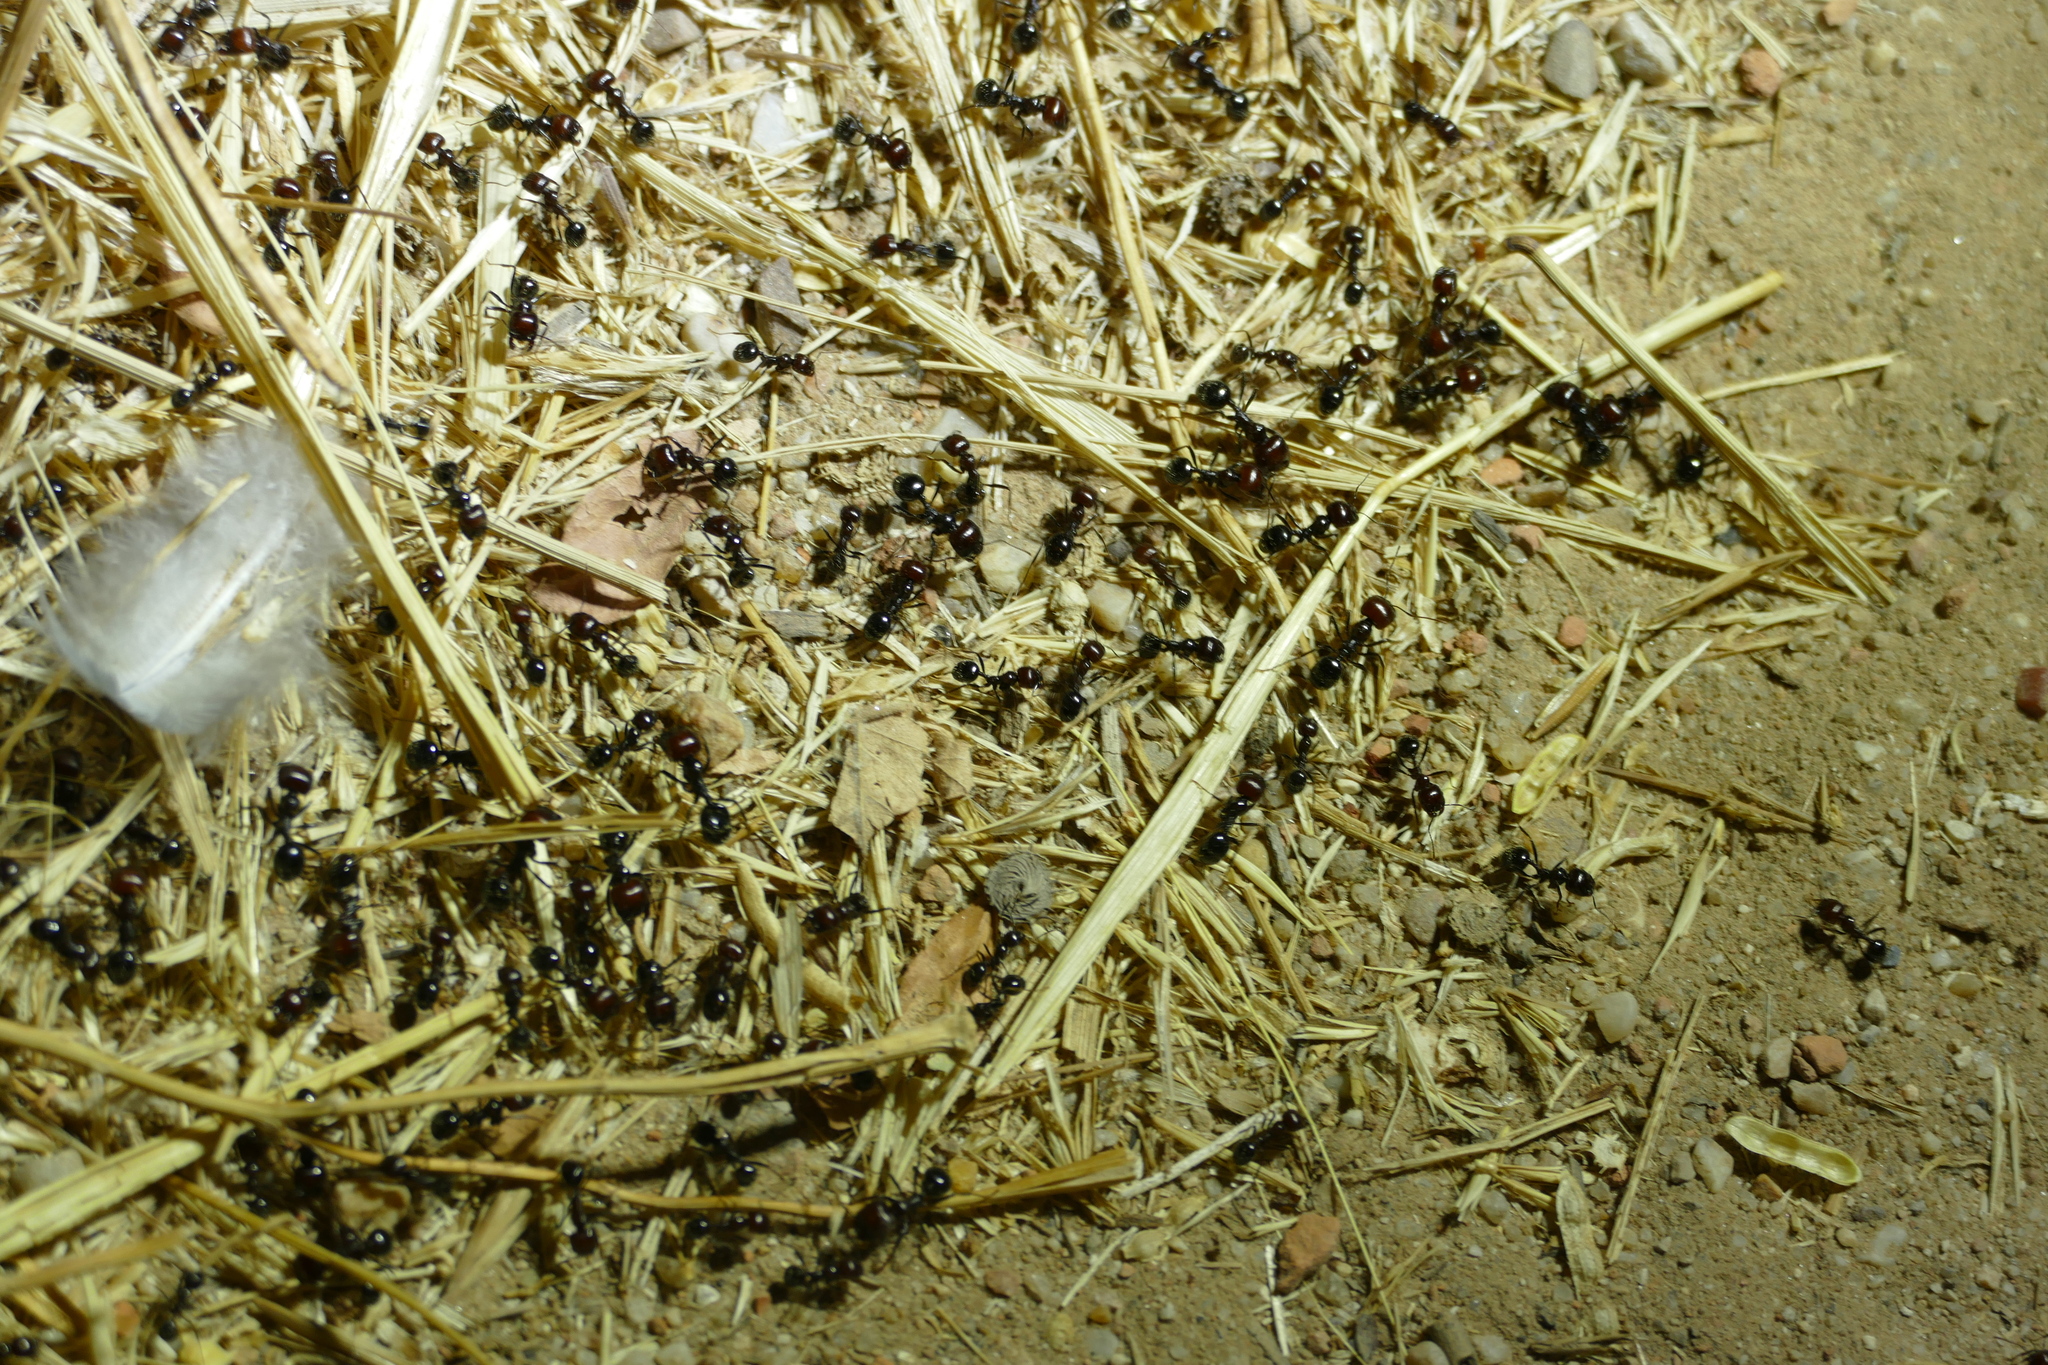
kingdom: Animalia
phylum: Arthropoda
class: Insecta
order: Hymenoptera
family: Formicidae
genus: Messor
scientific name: Messor barbarus
